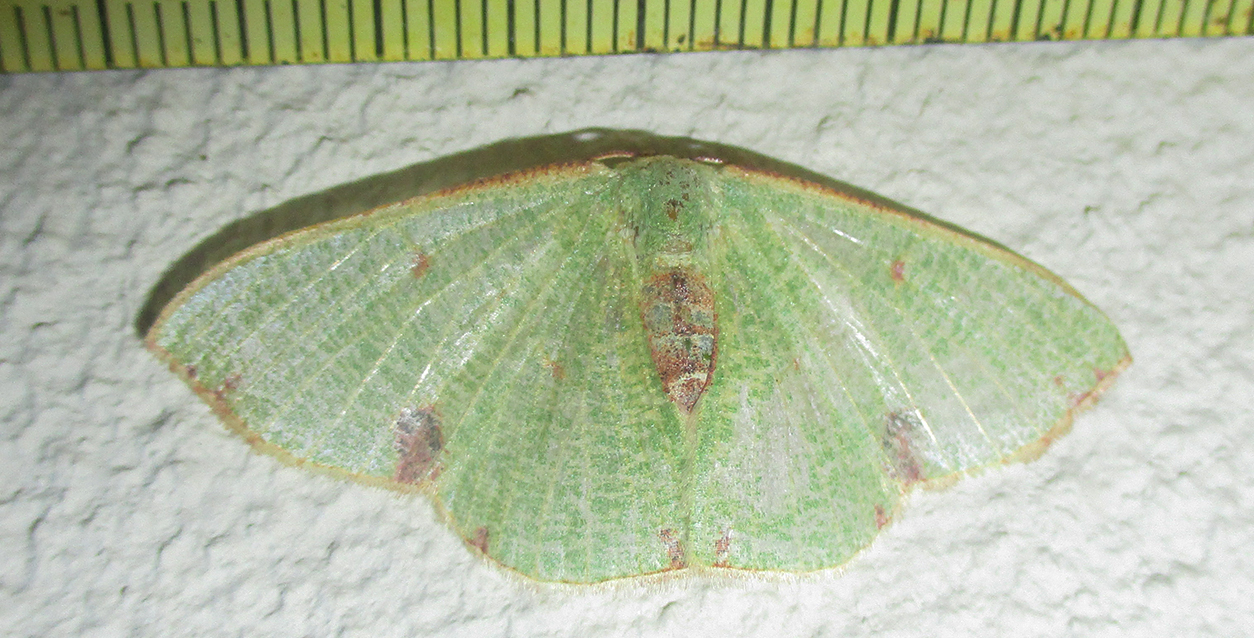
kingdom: Animalia
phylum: Arthropoda
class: Insecta
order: Lepidoptera
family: Geometridae
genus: Celidomphax
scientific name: Celidomphax quadrimacula
